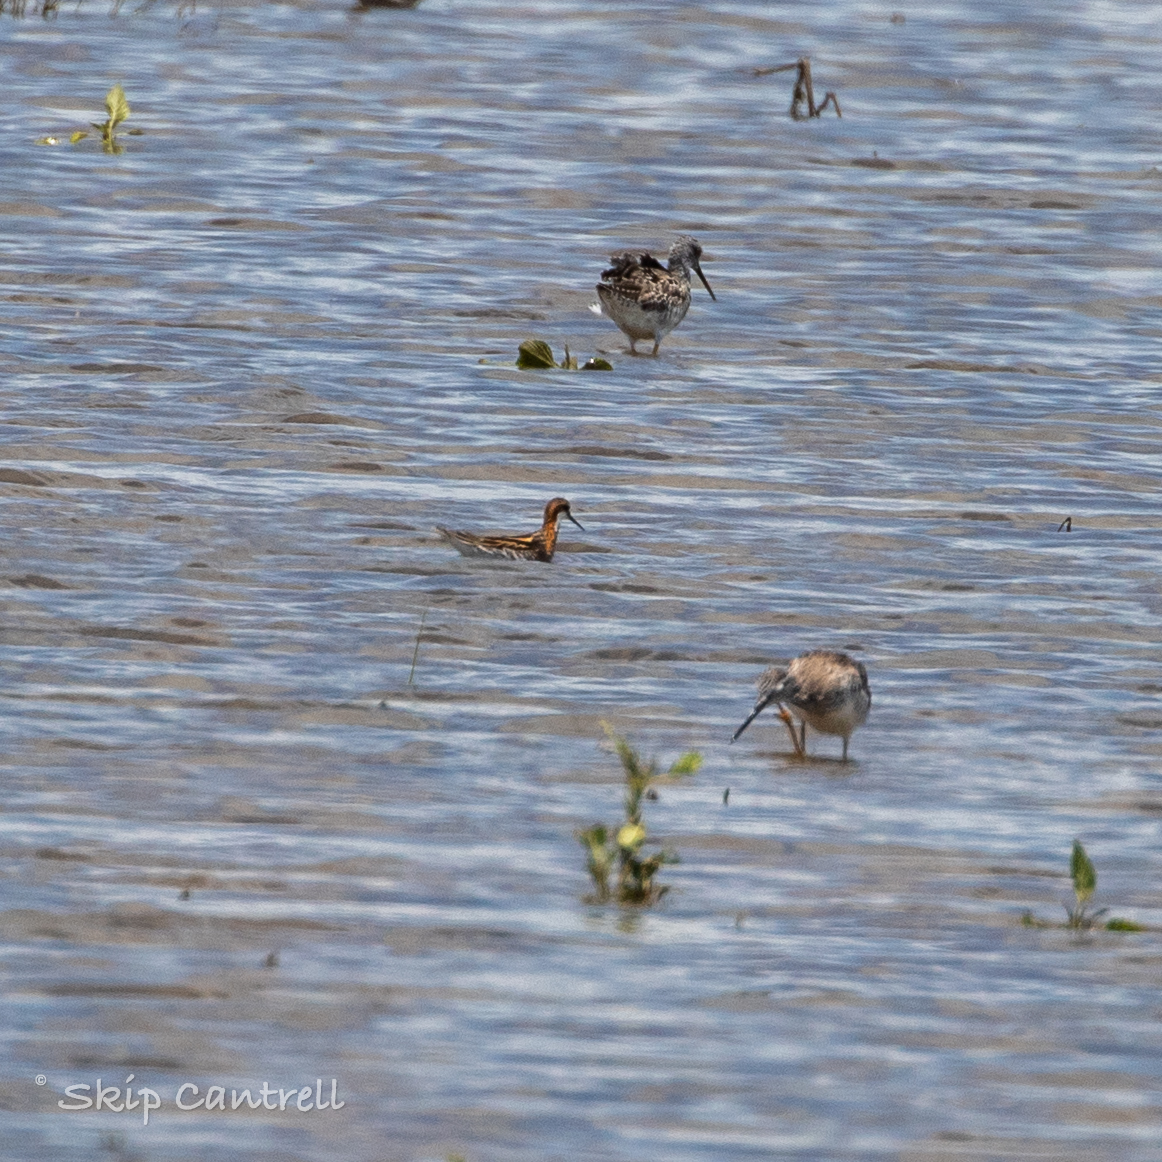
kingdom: Animalia
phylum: Chordata
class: Aves
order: Charadriiformes
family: Scolopacidae
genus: Phalaropus
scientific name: Phalaropus lobatus
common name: Red-necked phalarope
